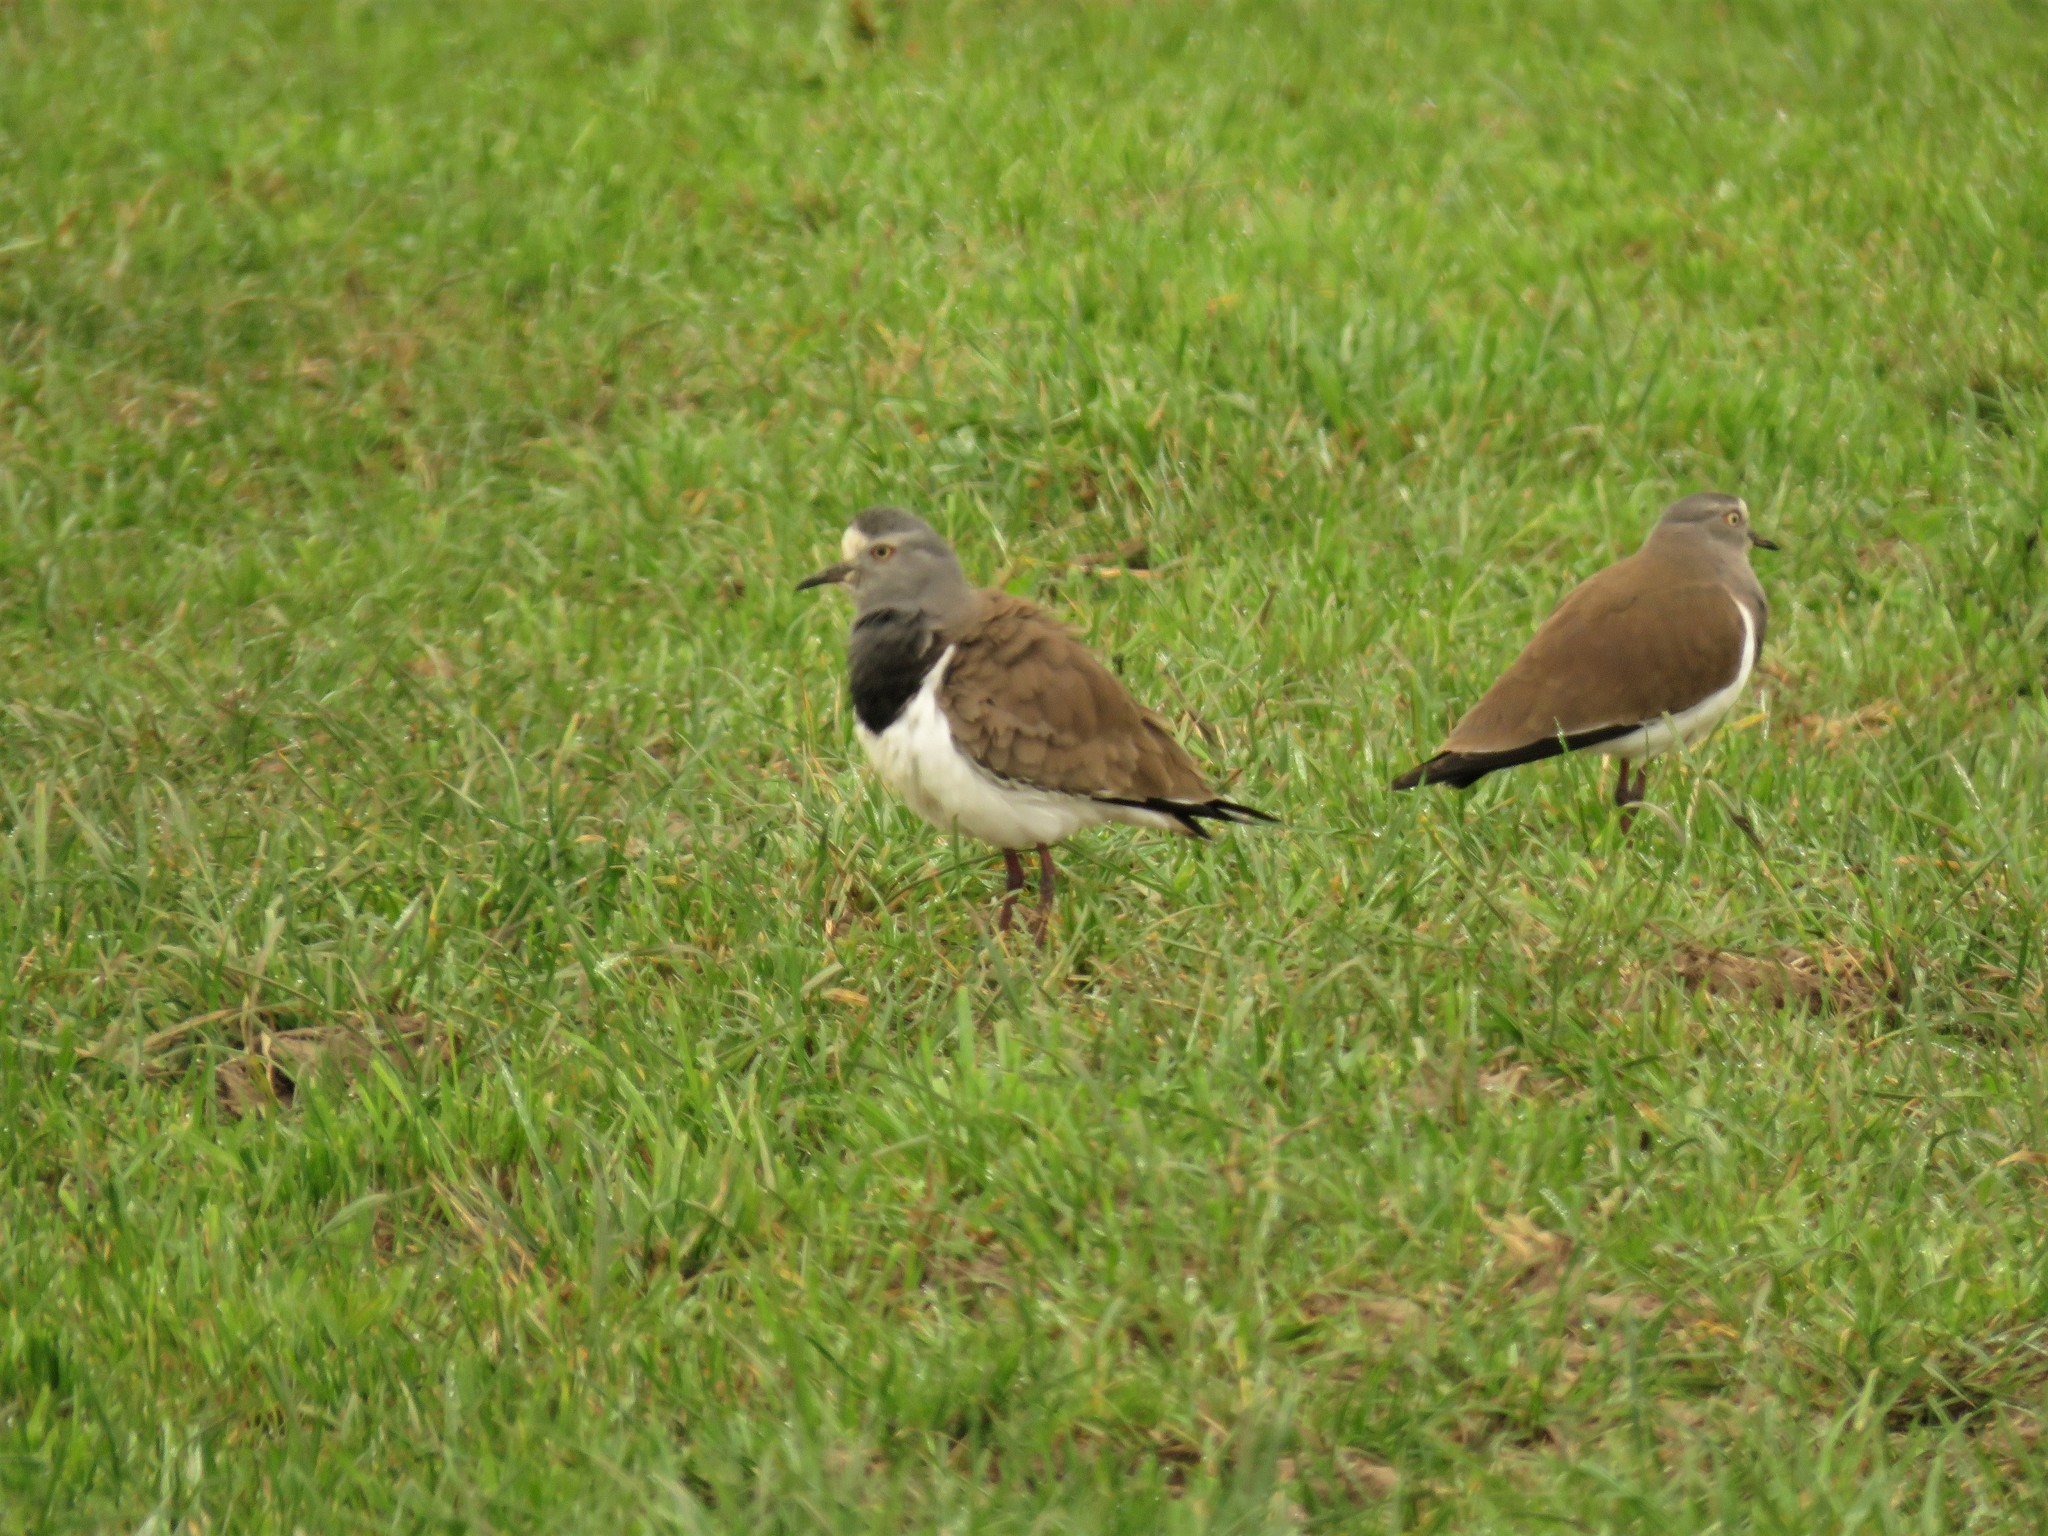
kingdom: Animalia
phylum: Chordata
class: Aves
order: Charadriiformes
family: Charadriidae
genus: Vanellus
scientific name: Vanellus melanopterus
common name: Black-winged lapwing
